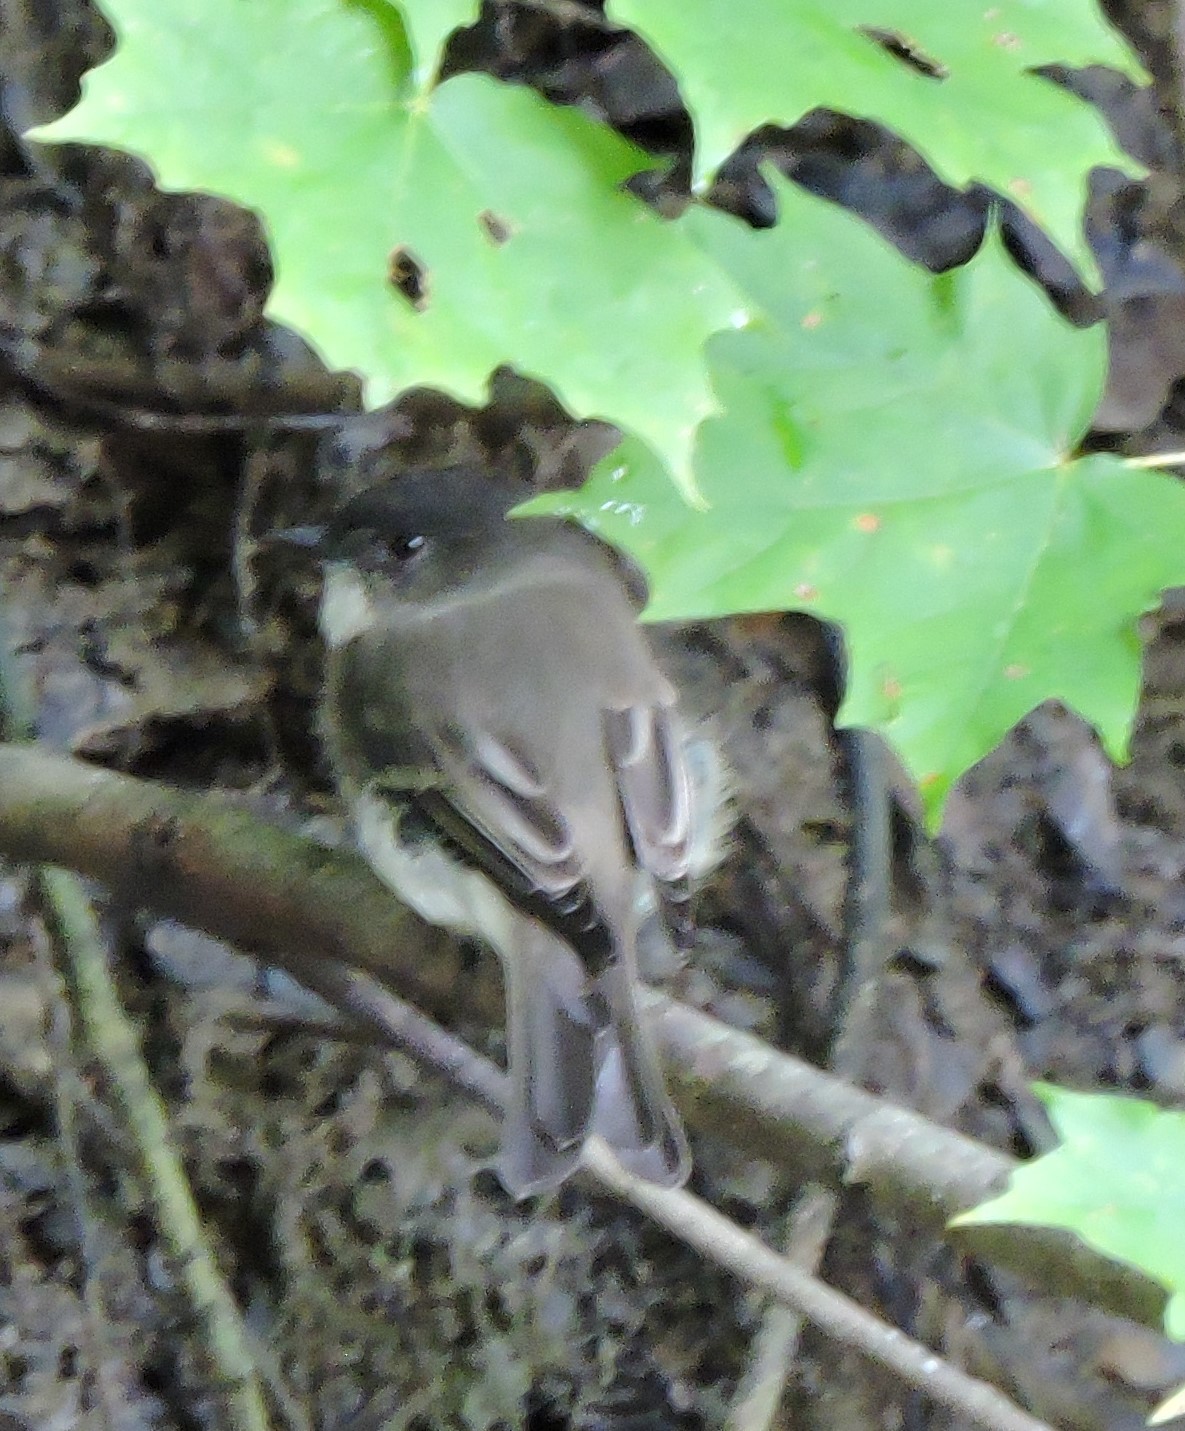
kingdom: Animalia
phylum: Chordata
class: Aves
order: Passeriformes
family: Tyrannidae
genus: Sayornis
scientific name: Sayornis phoebe
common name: Eastern phoebe
